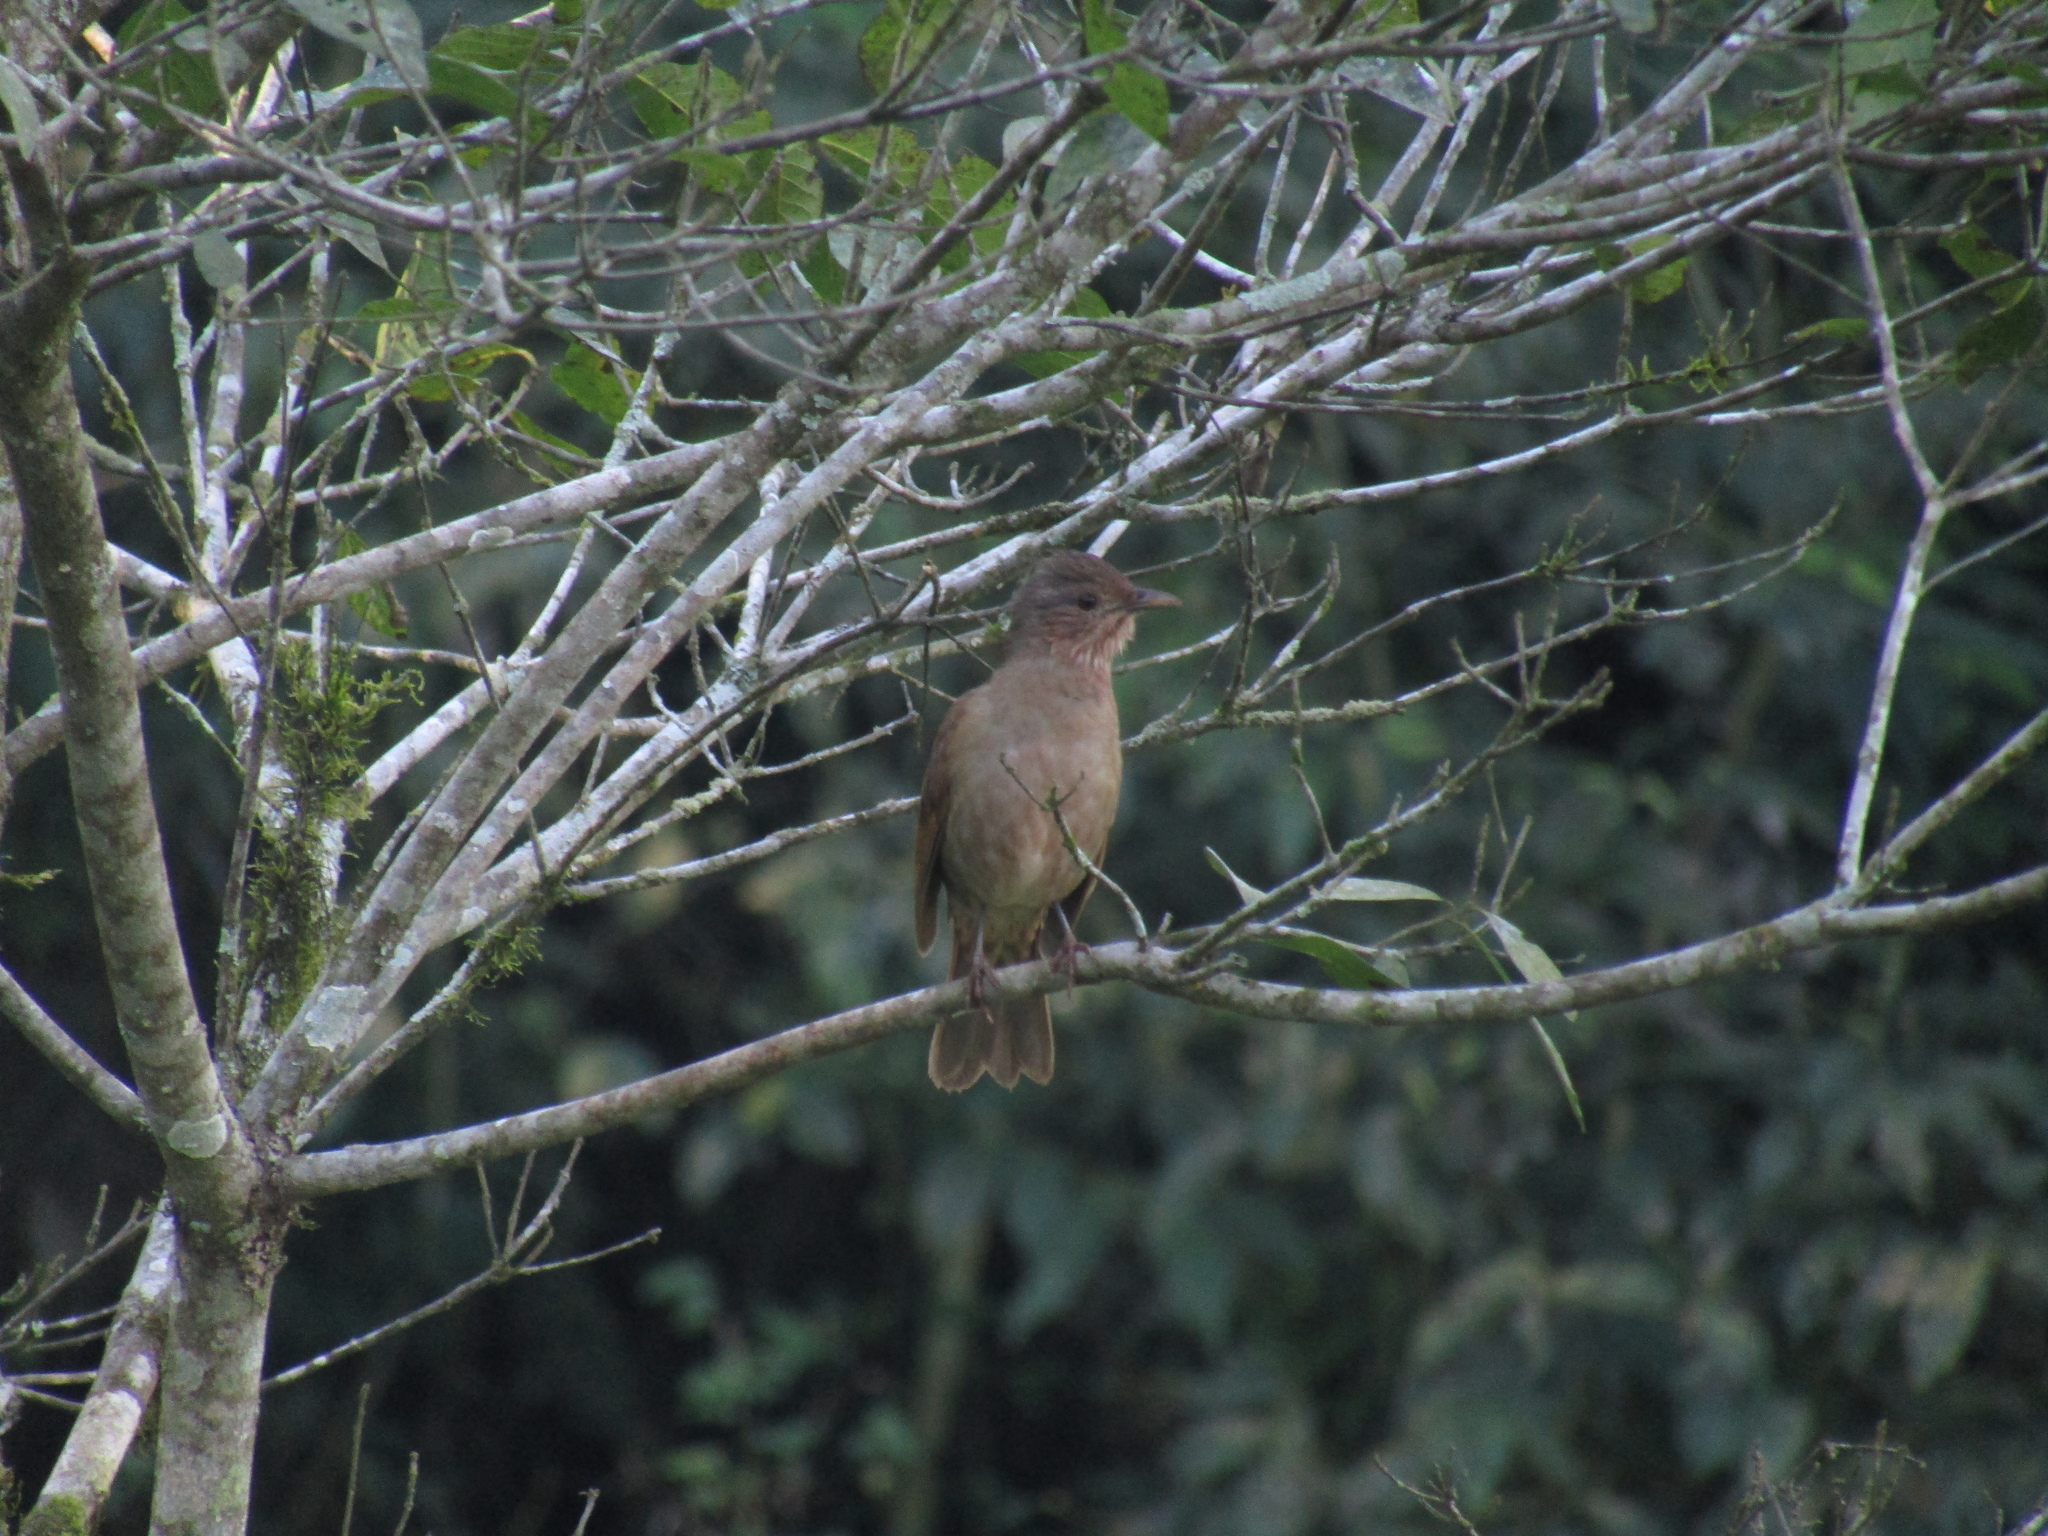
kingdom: Animalia
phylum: Chordata
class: Aves
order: Passeriformes
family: Turdidae
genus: Turdus
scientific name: Turdus leucomelas
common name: Pale-breasted thrush
